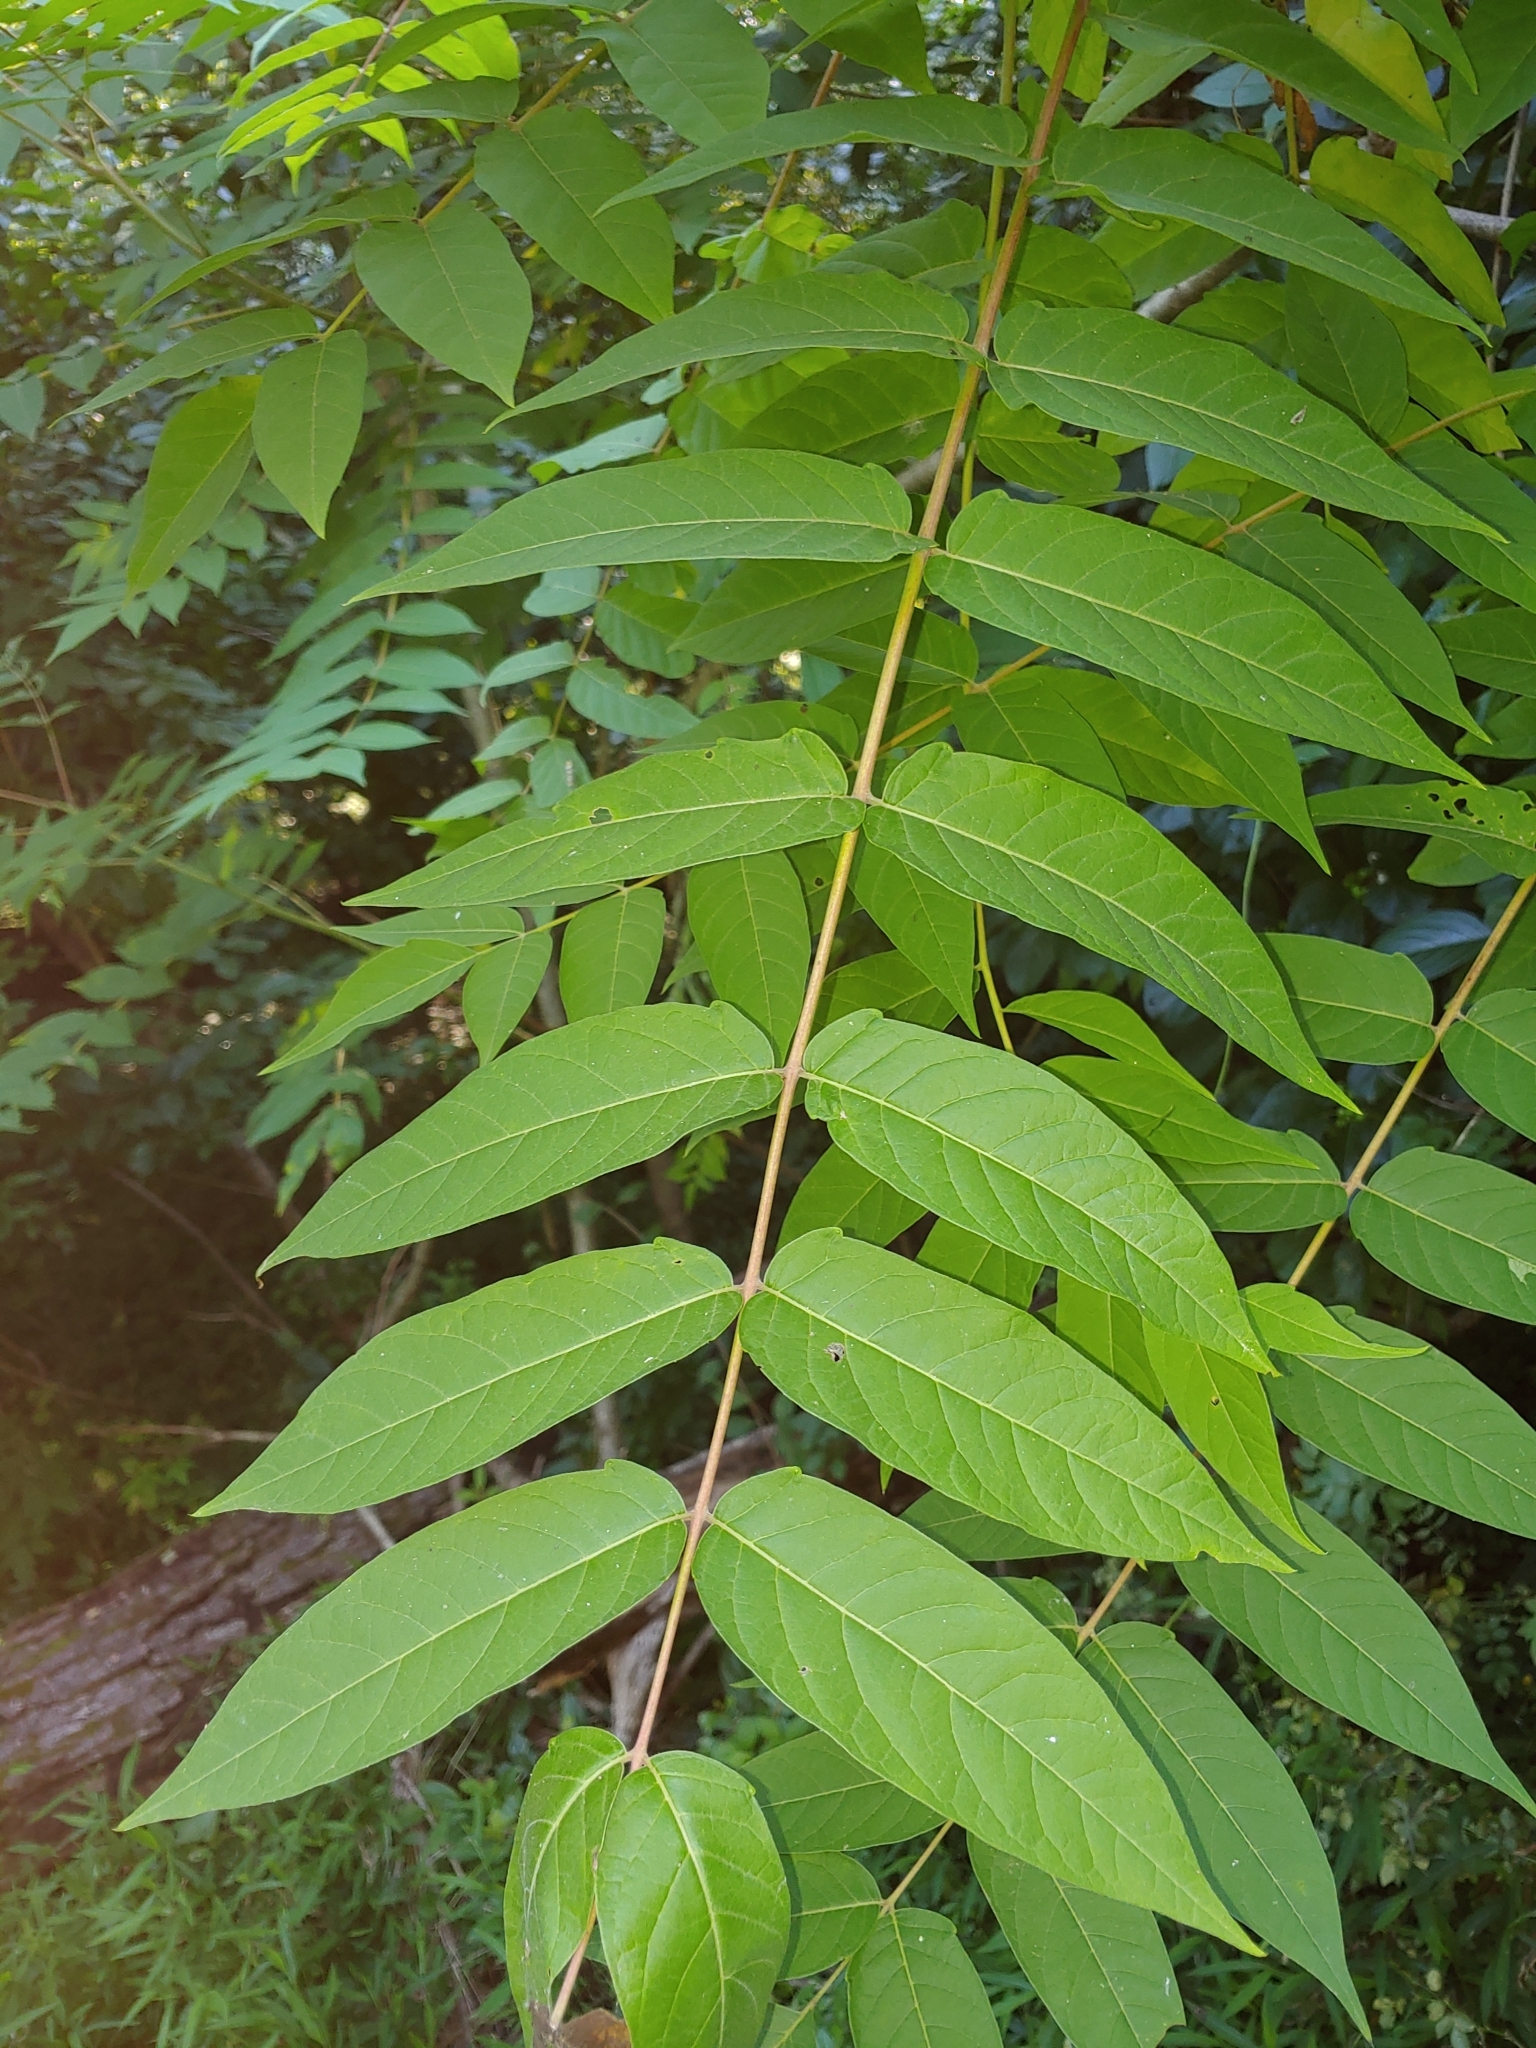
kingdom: Plantae
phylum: Tracheophyta
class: Magnoliopsida
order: Sapindales
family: Simaroubaceae
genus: Ailanthus
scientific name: Ailanthus altissima
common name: Tree-of-heaven
